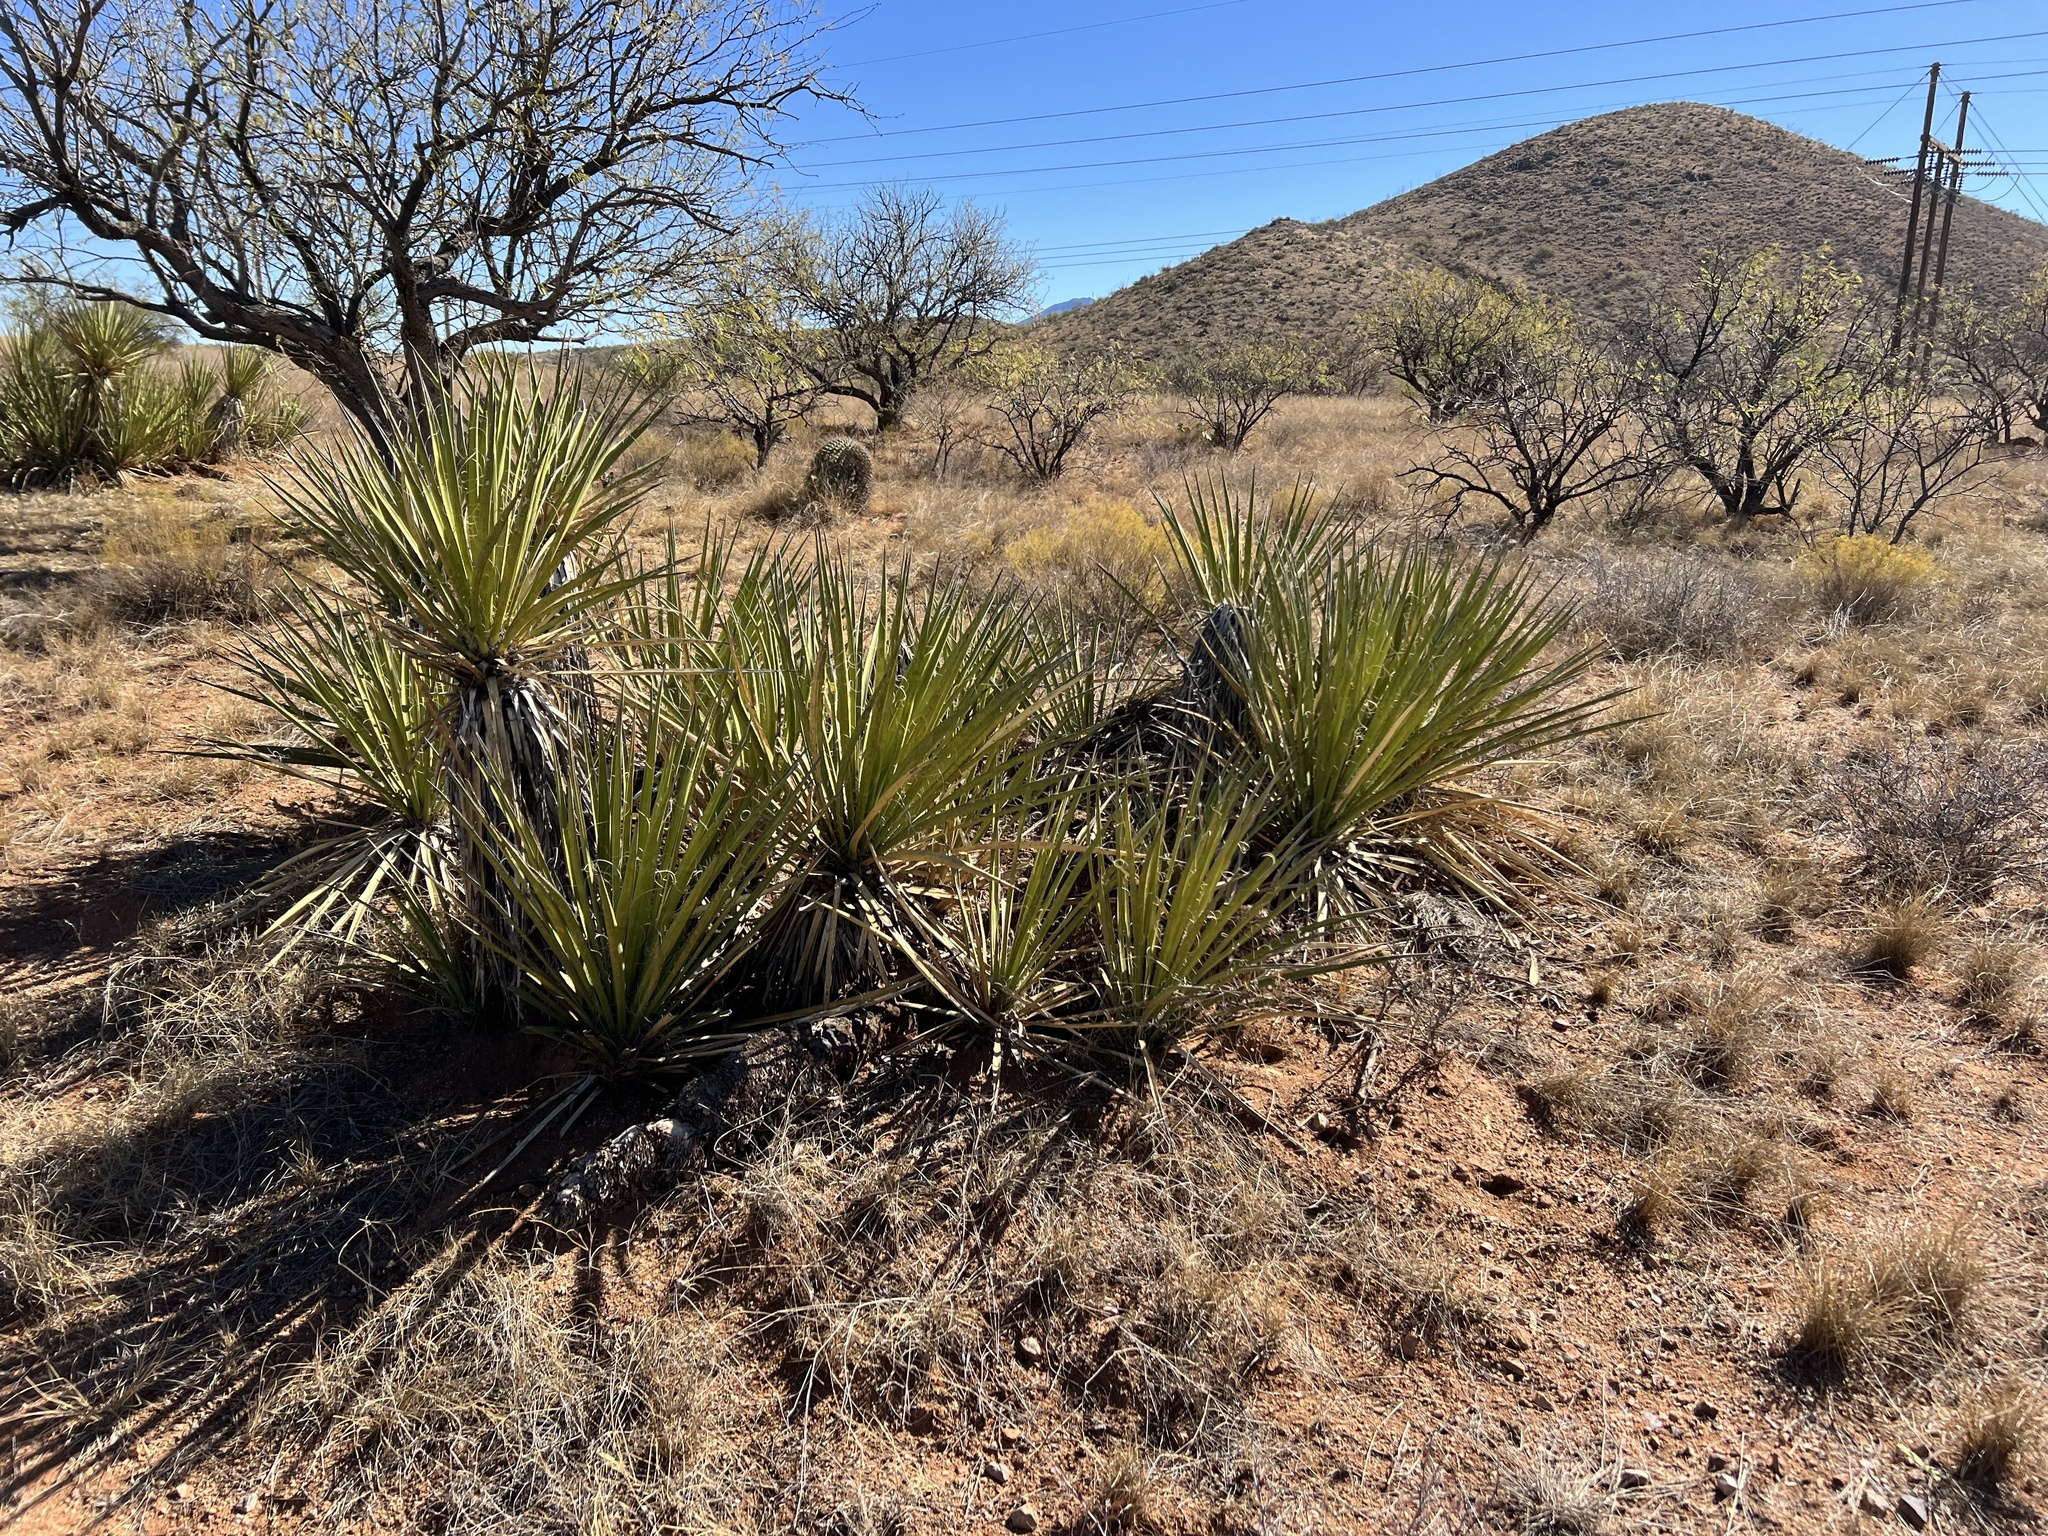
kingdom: Plantae
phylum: Tracheophyta
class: Liliopsida
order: Asparagales
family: Asparagaceae
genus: Yucca
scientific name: Yucca baccata
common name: Banana yucca
